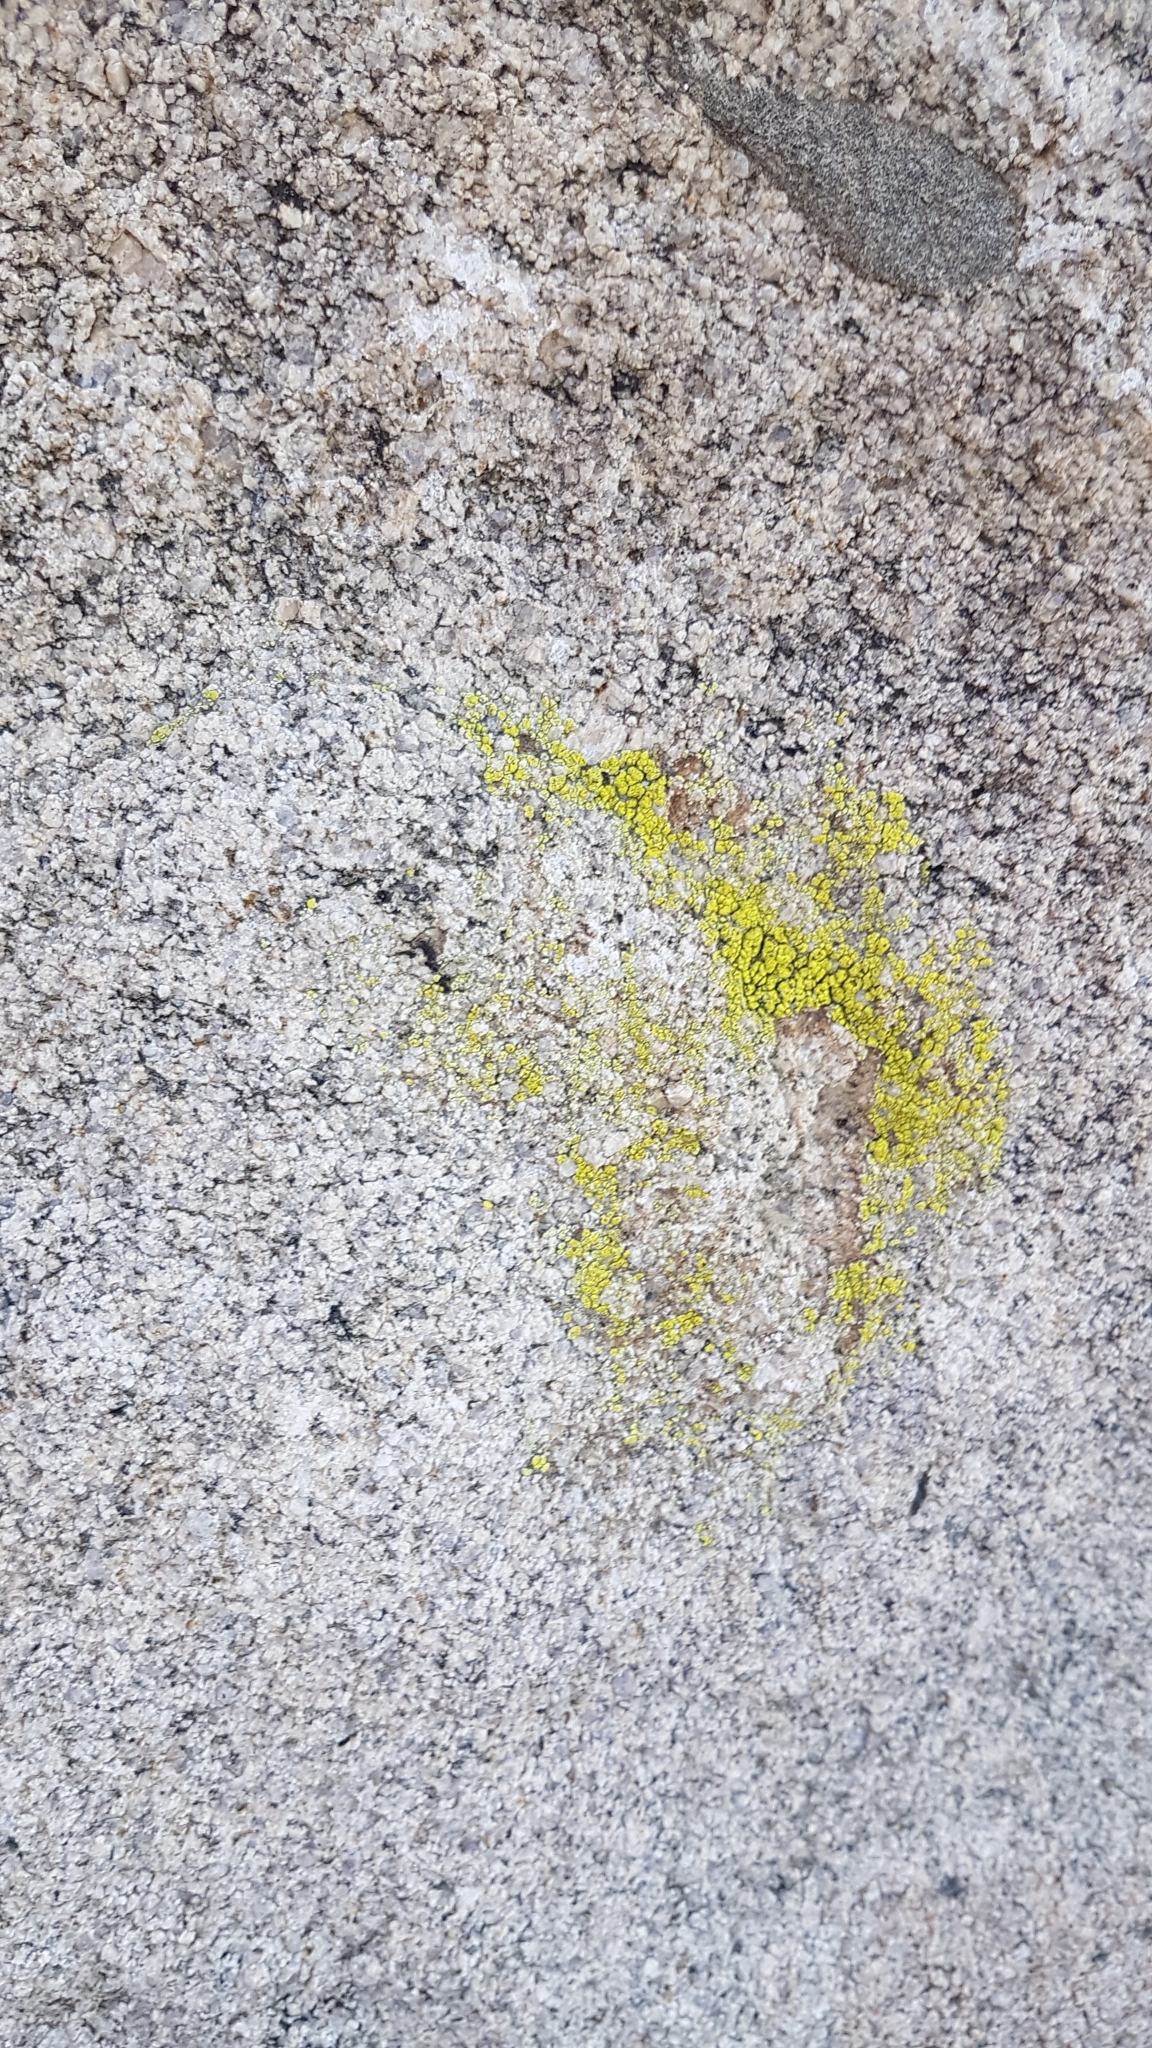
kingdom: Fungi
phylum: Ascomycota
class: Lecanoromycetes
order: Acarosporales
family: Acarosporaceae
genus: Acarospora
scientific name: Acarospora socialis
